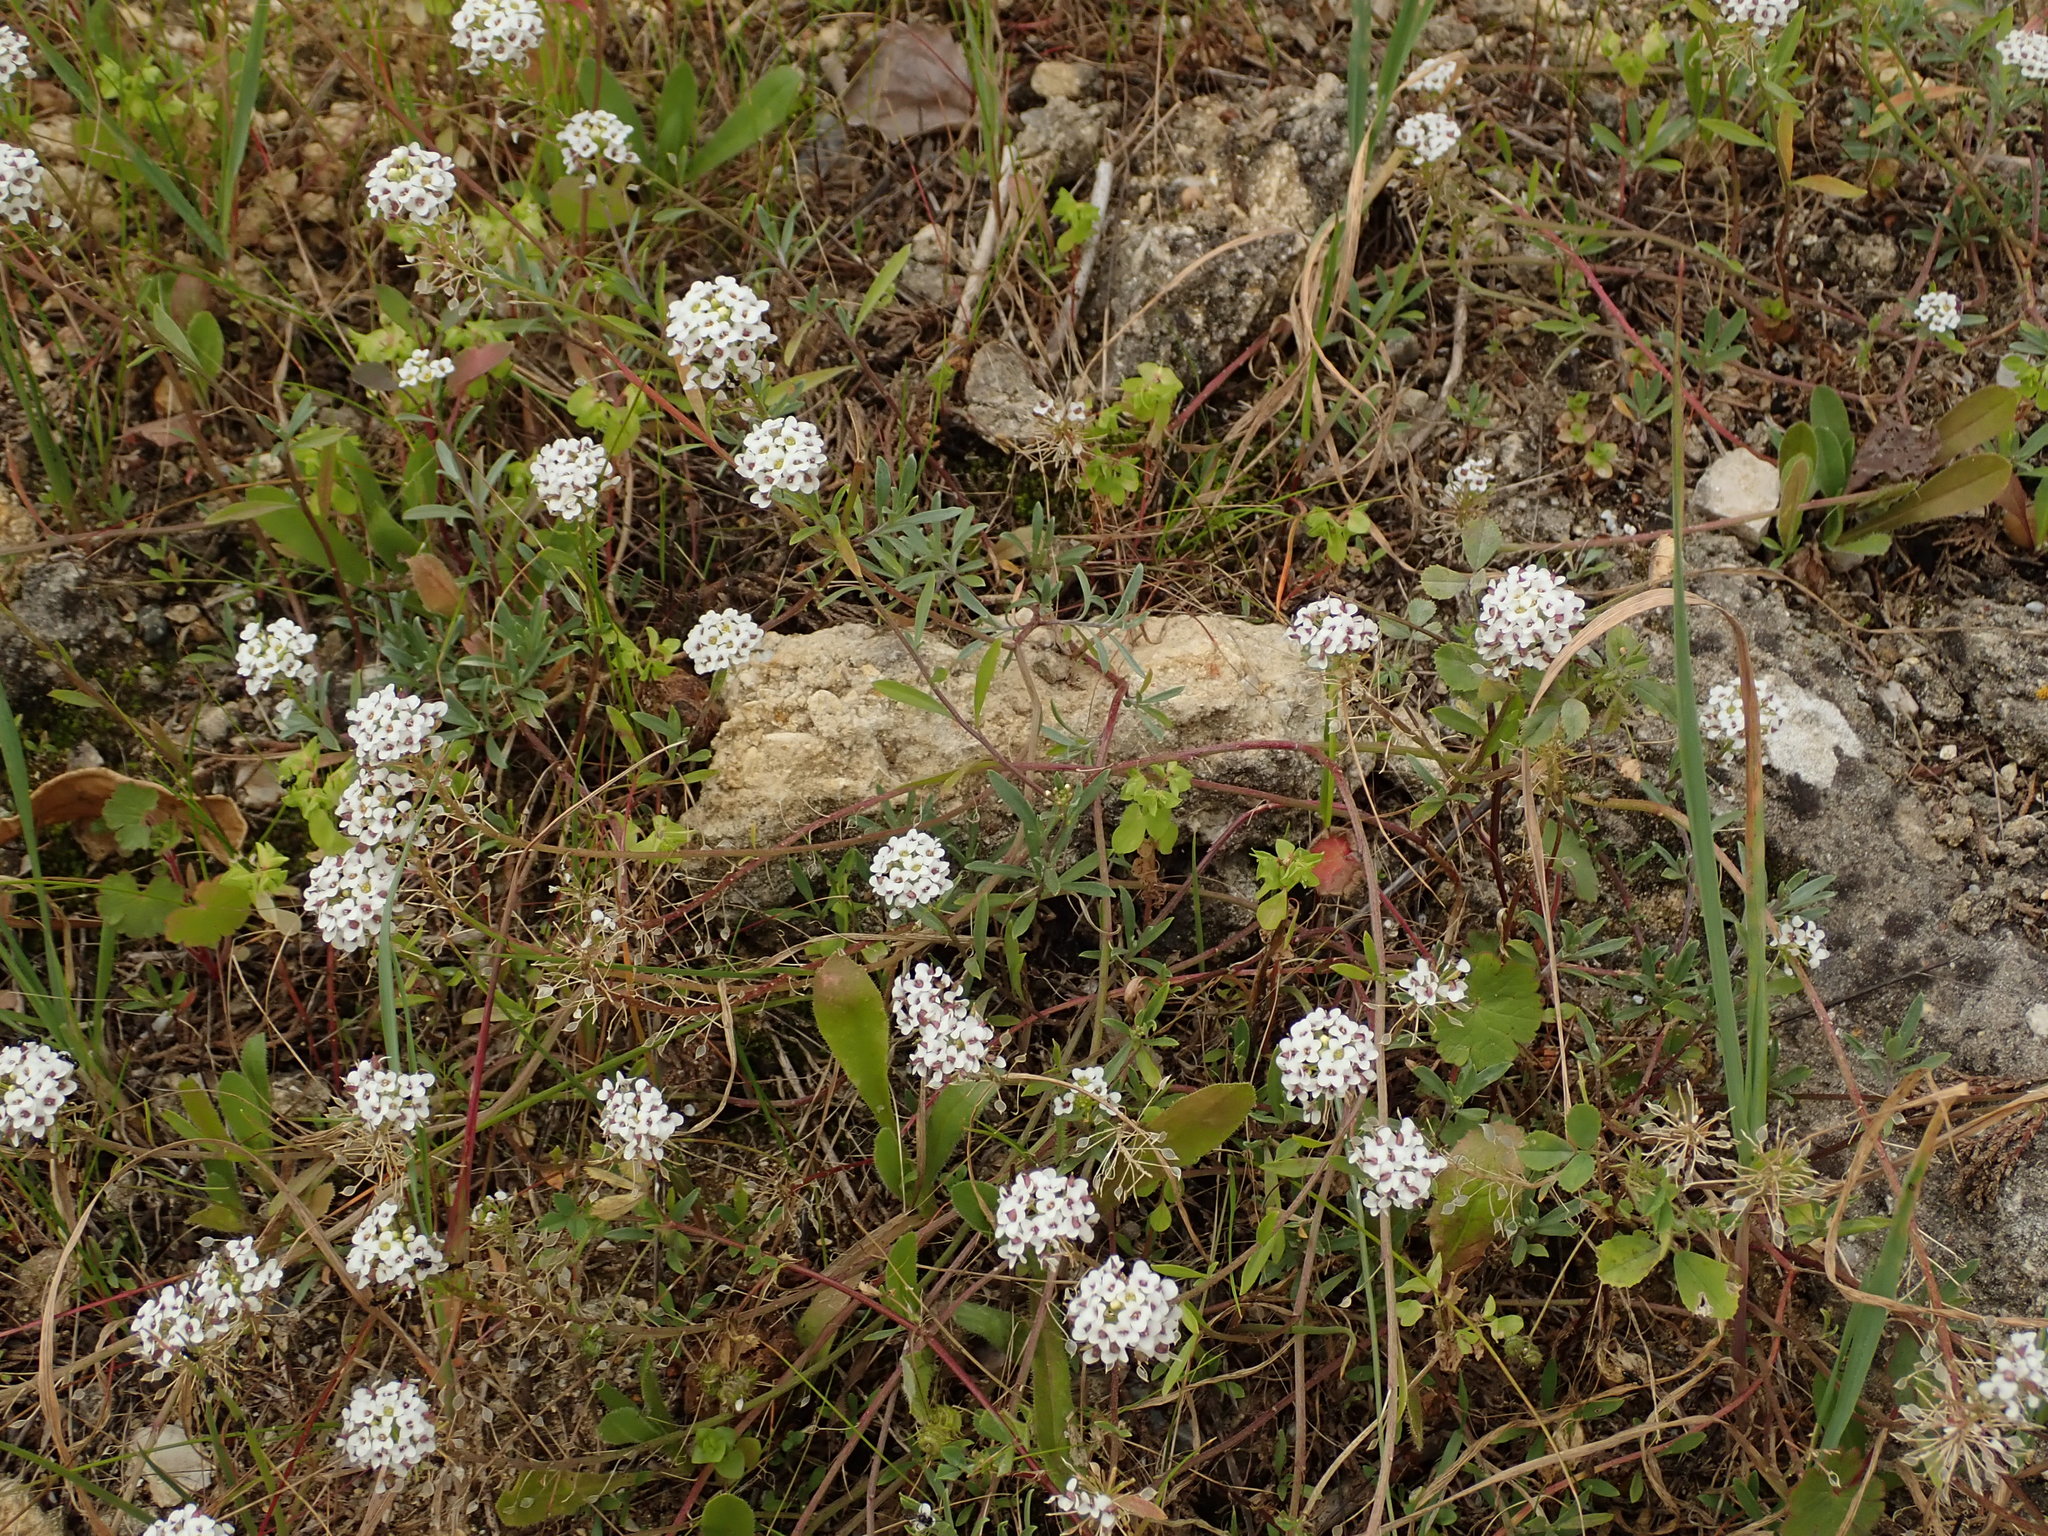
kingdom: Plantae
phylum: Tracheophyta
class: Magnoliopsida
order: Brassicales
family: Brassicaceae
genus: Lobularia
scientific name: Lobularia maritima
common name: Sweet alison
